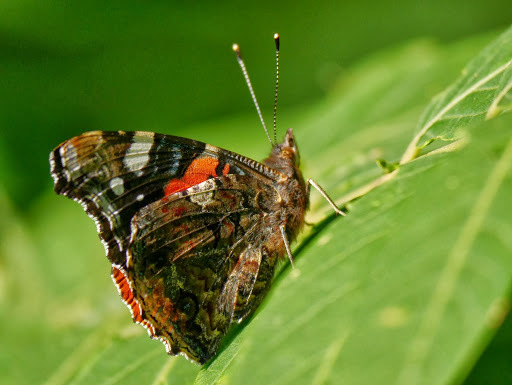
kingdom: Animalia
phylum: Arthropoda
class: Insecta
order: Lepidoptera
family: Nymphalidae
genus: Vanessa
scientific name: Vanessa atalanta
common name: Red admiral
